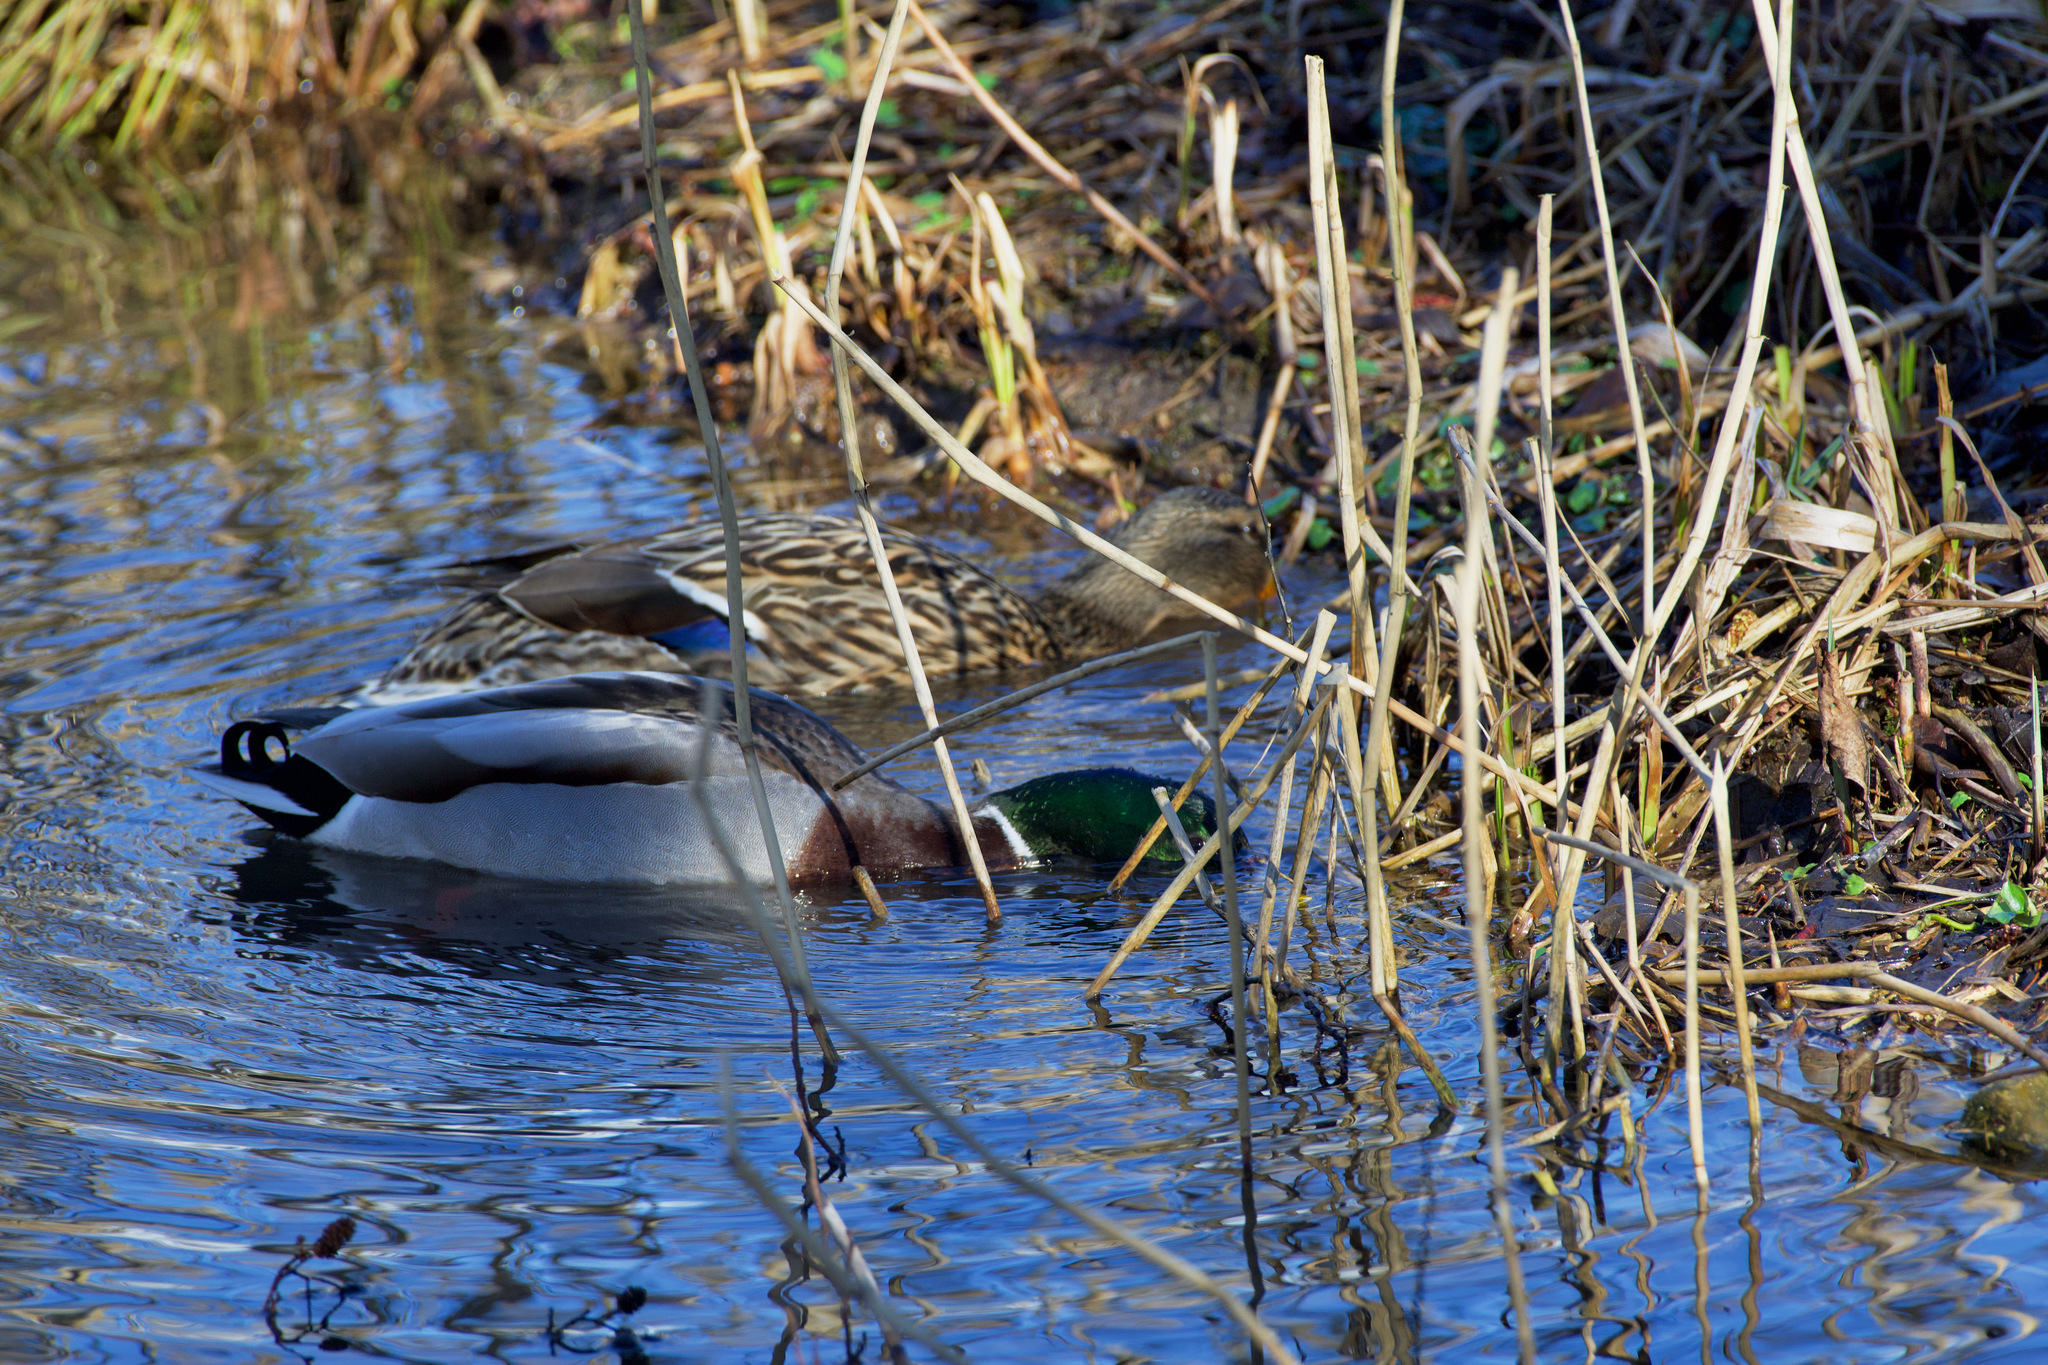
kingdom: Animalia
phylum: Chordata
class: Aves
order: Anseriformes
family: Anatidae
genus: Anas
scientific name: Anas platyrhynchos
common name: Mallard
